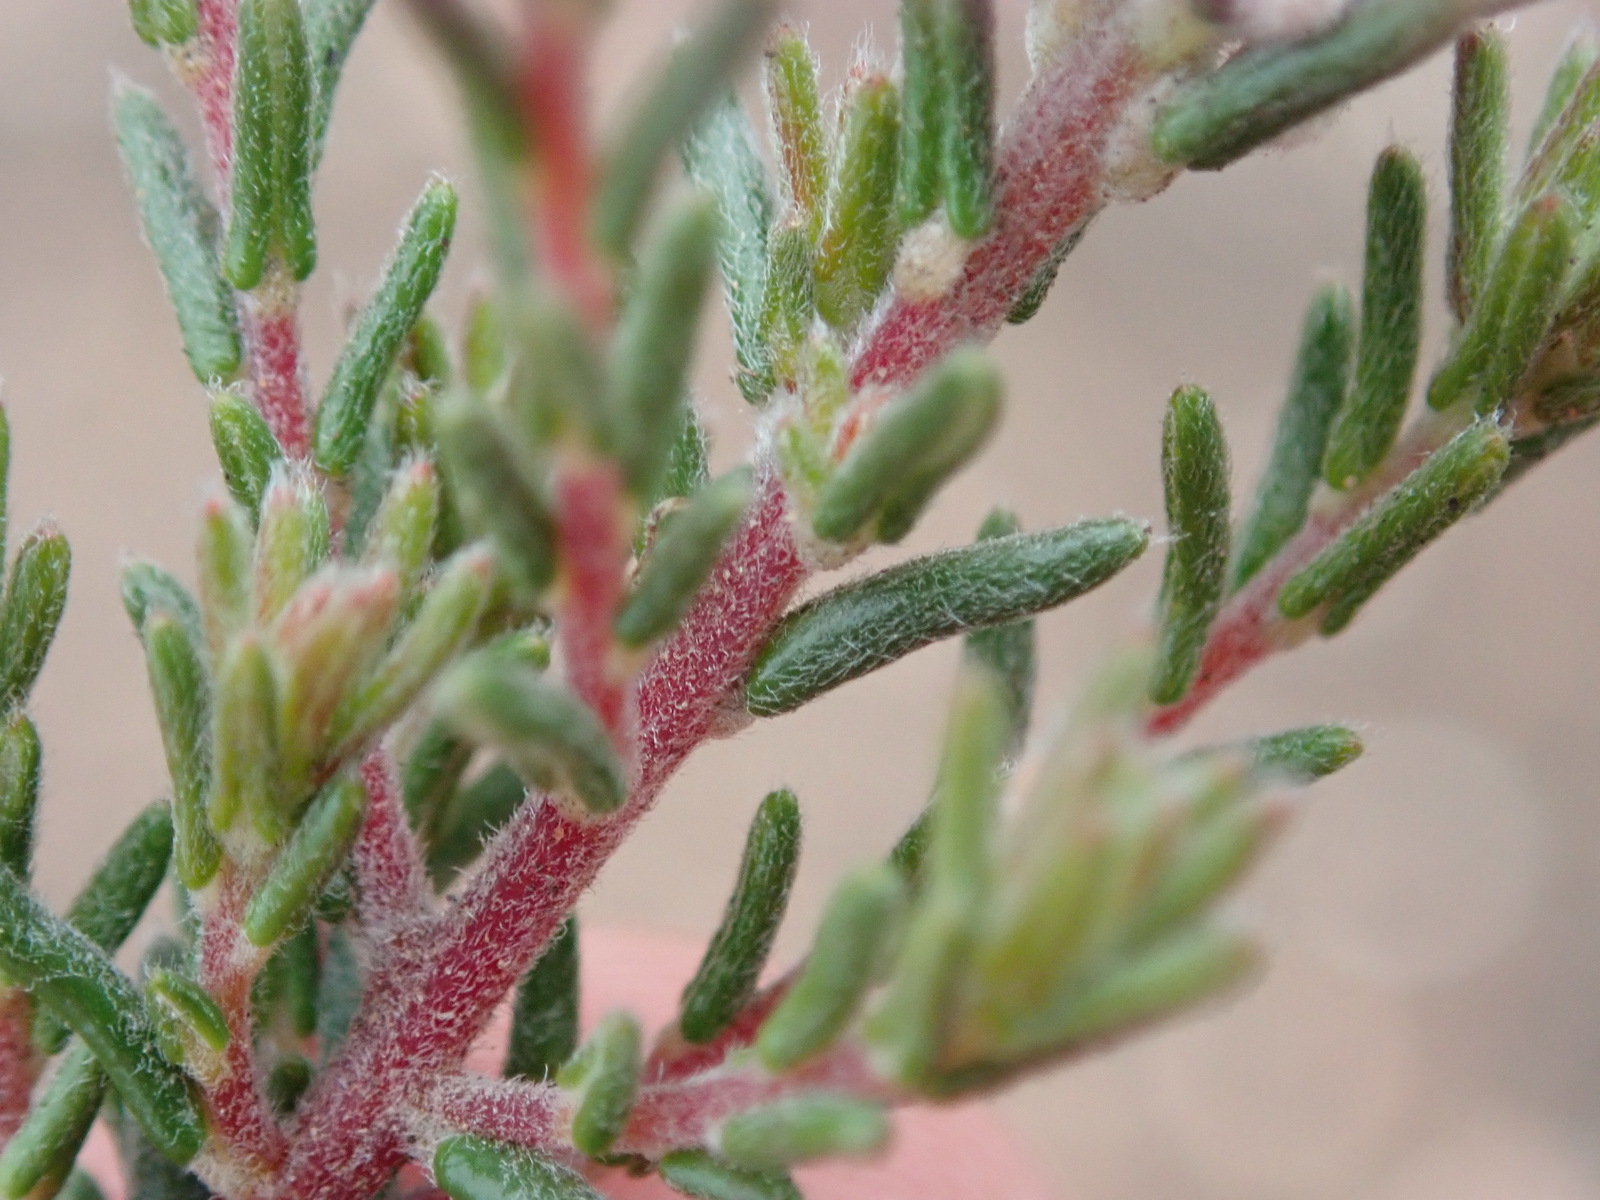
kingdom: Plantae
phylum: Tracheophyta
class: Magnoliopsida
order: Rosales
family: Rhamnaceae
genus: Phylica
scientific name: Phylica karroica
